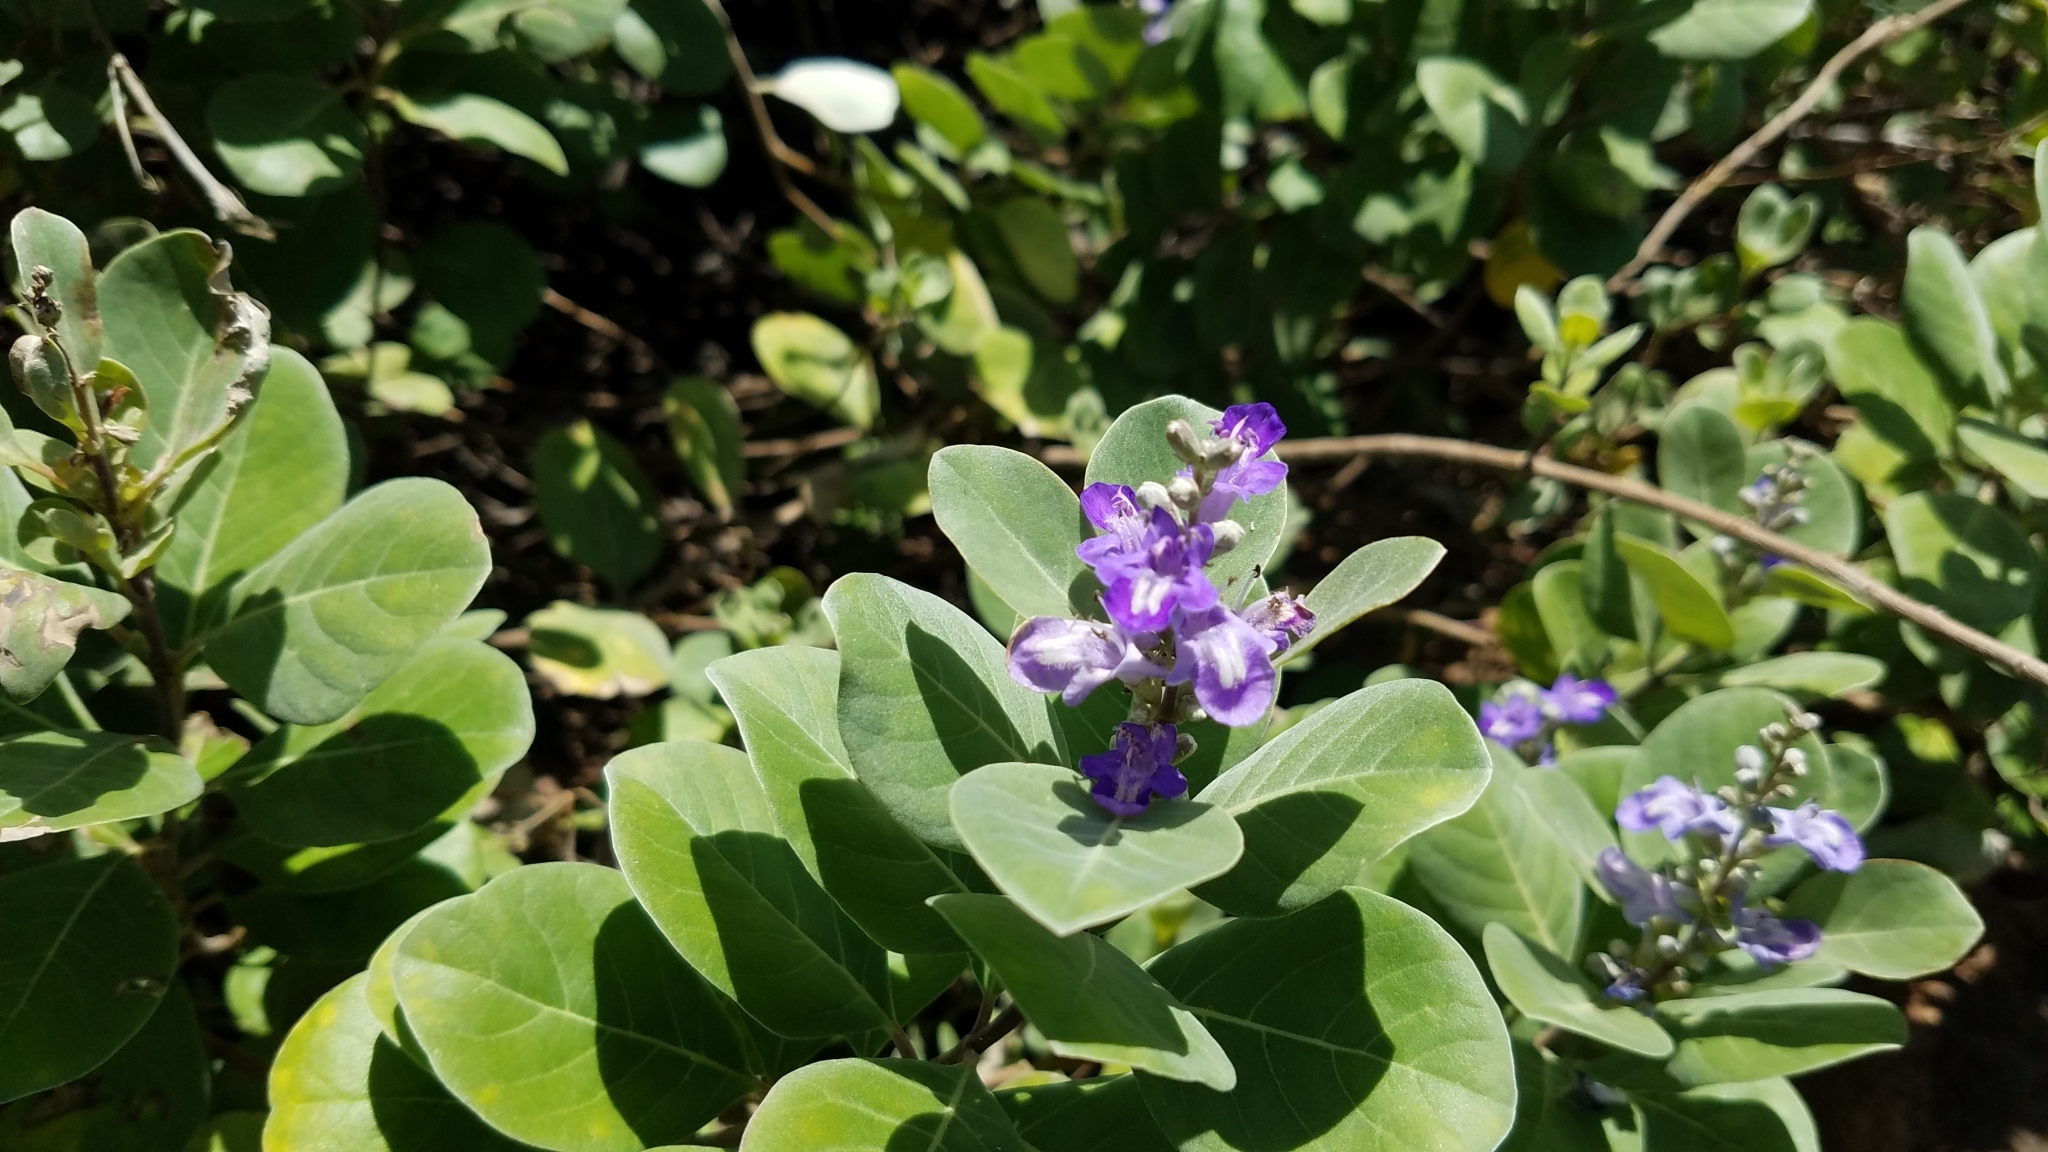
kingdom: Plantae
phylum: Tracheophyta
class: Magnoliopsida
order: Lamiales
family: Lamiaceae
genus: Vitex
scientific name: Vitex rotundifolia
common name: Beach vitex
